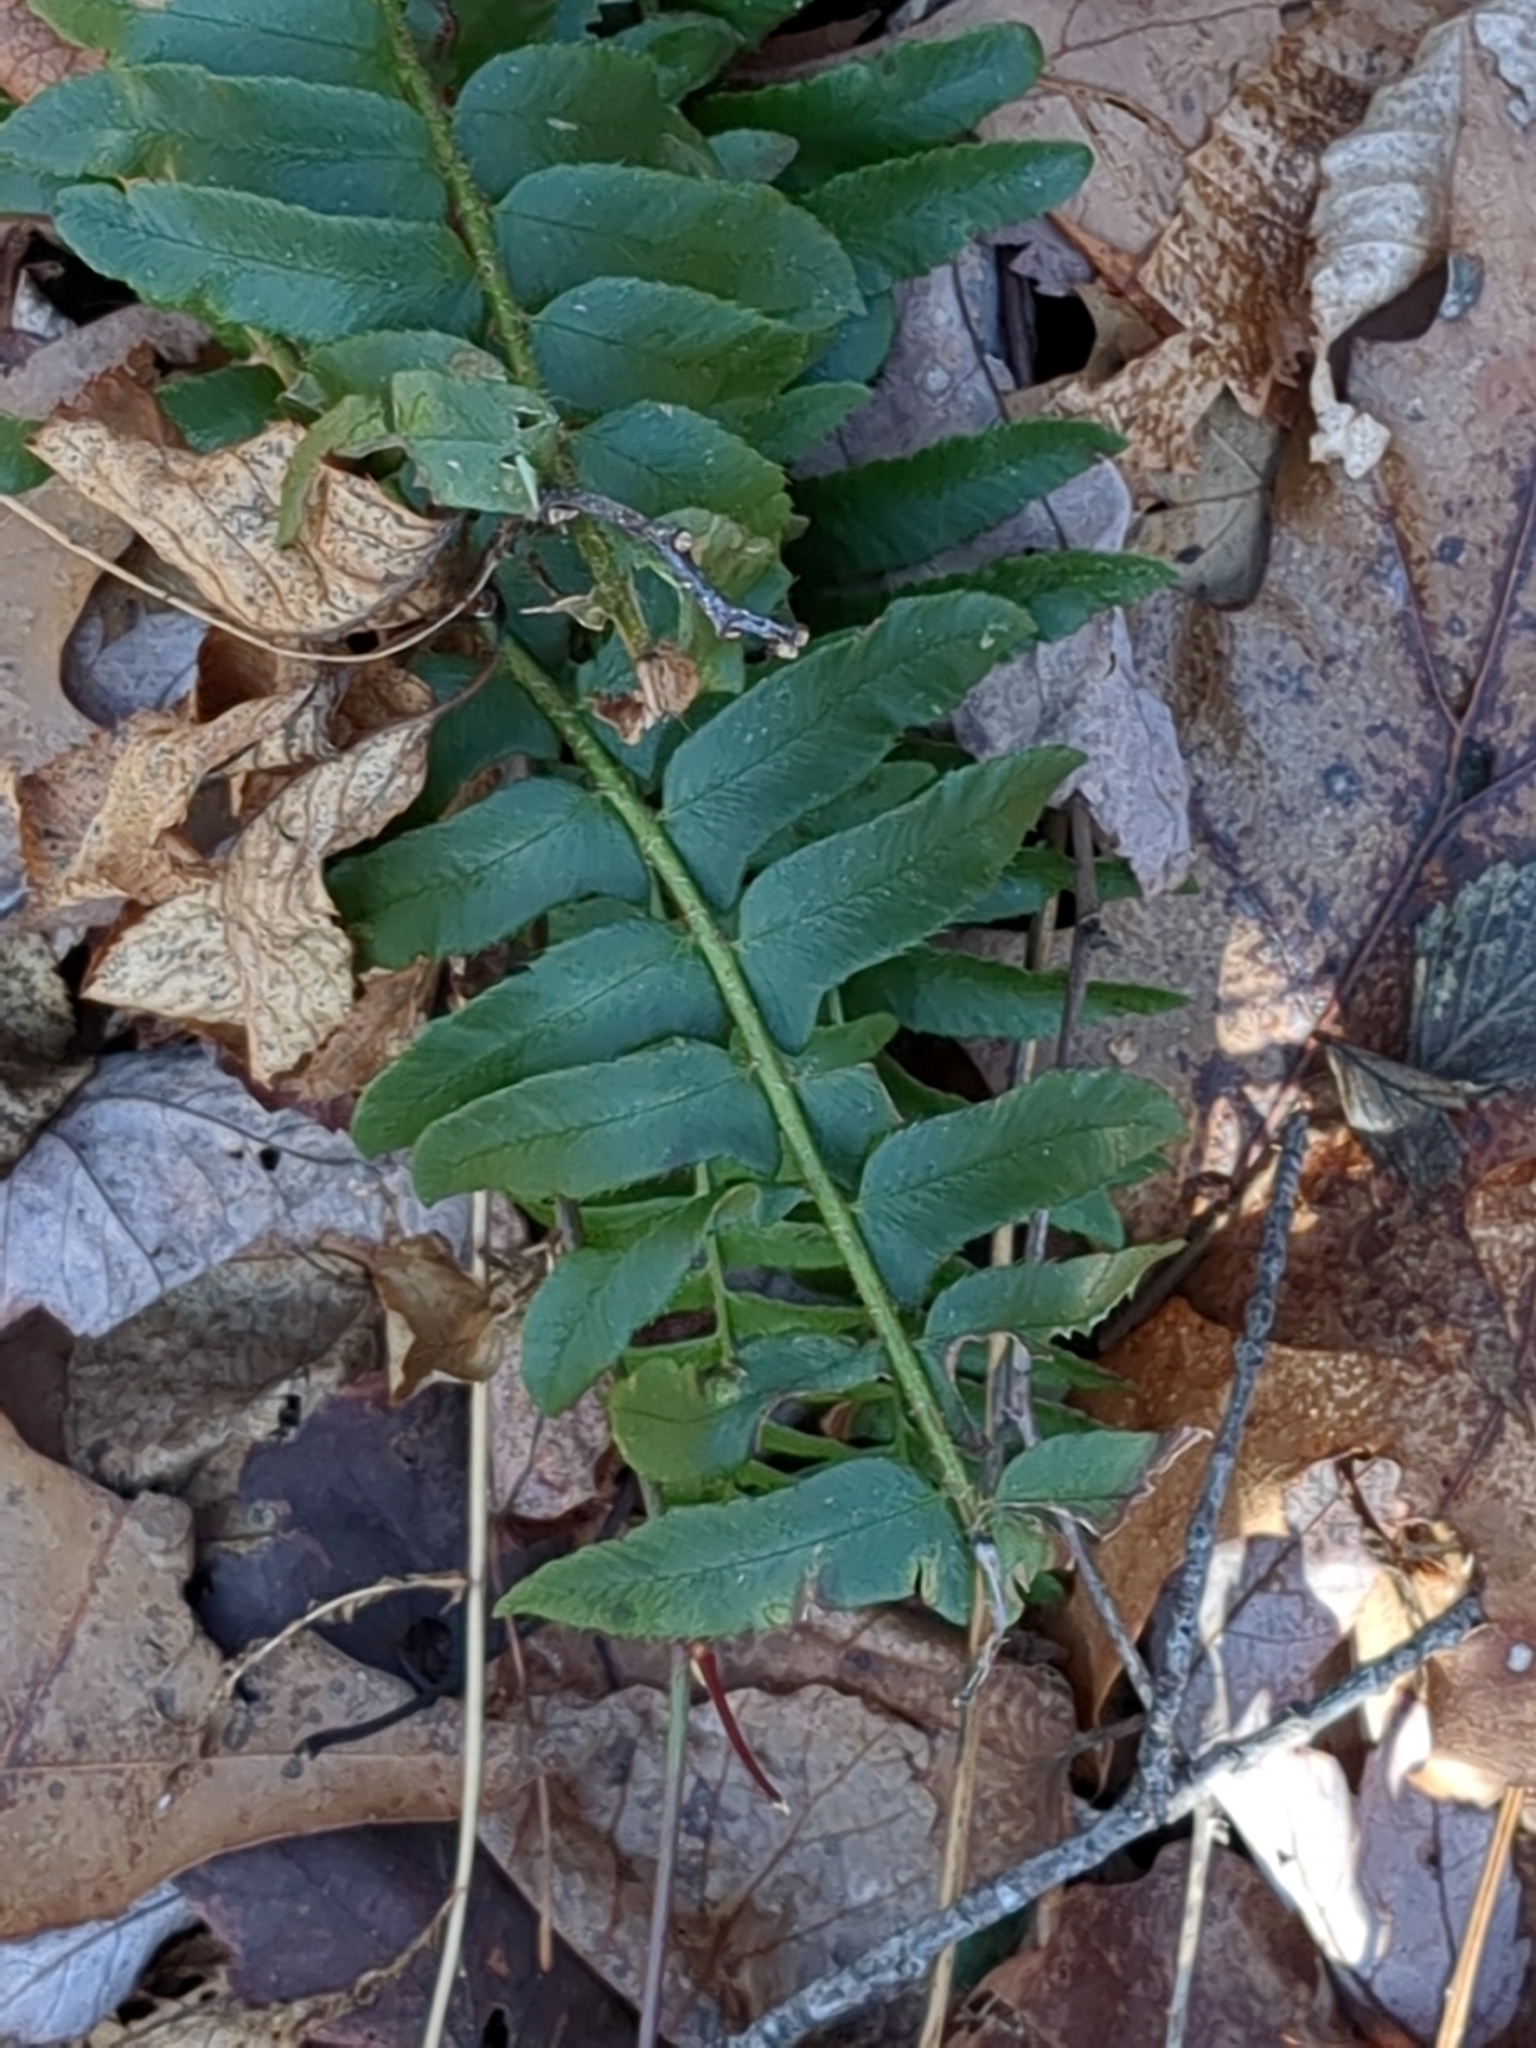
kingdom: Plantae
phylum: Tracheophyta
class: Polypodiopsida
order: Polypodiales
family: Dryopteridaceae
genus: Polystichum
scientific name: Polystichum acrostichoides
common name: Christmas fern
